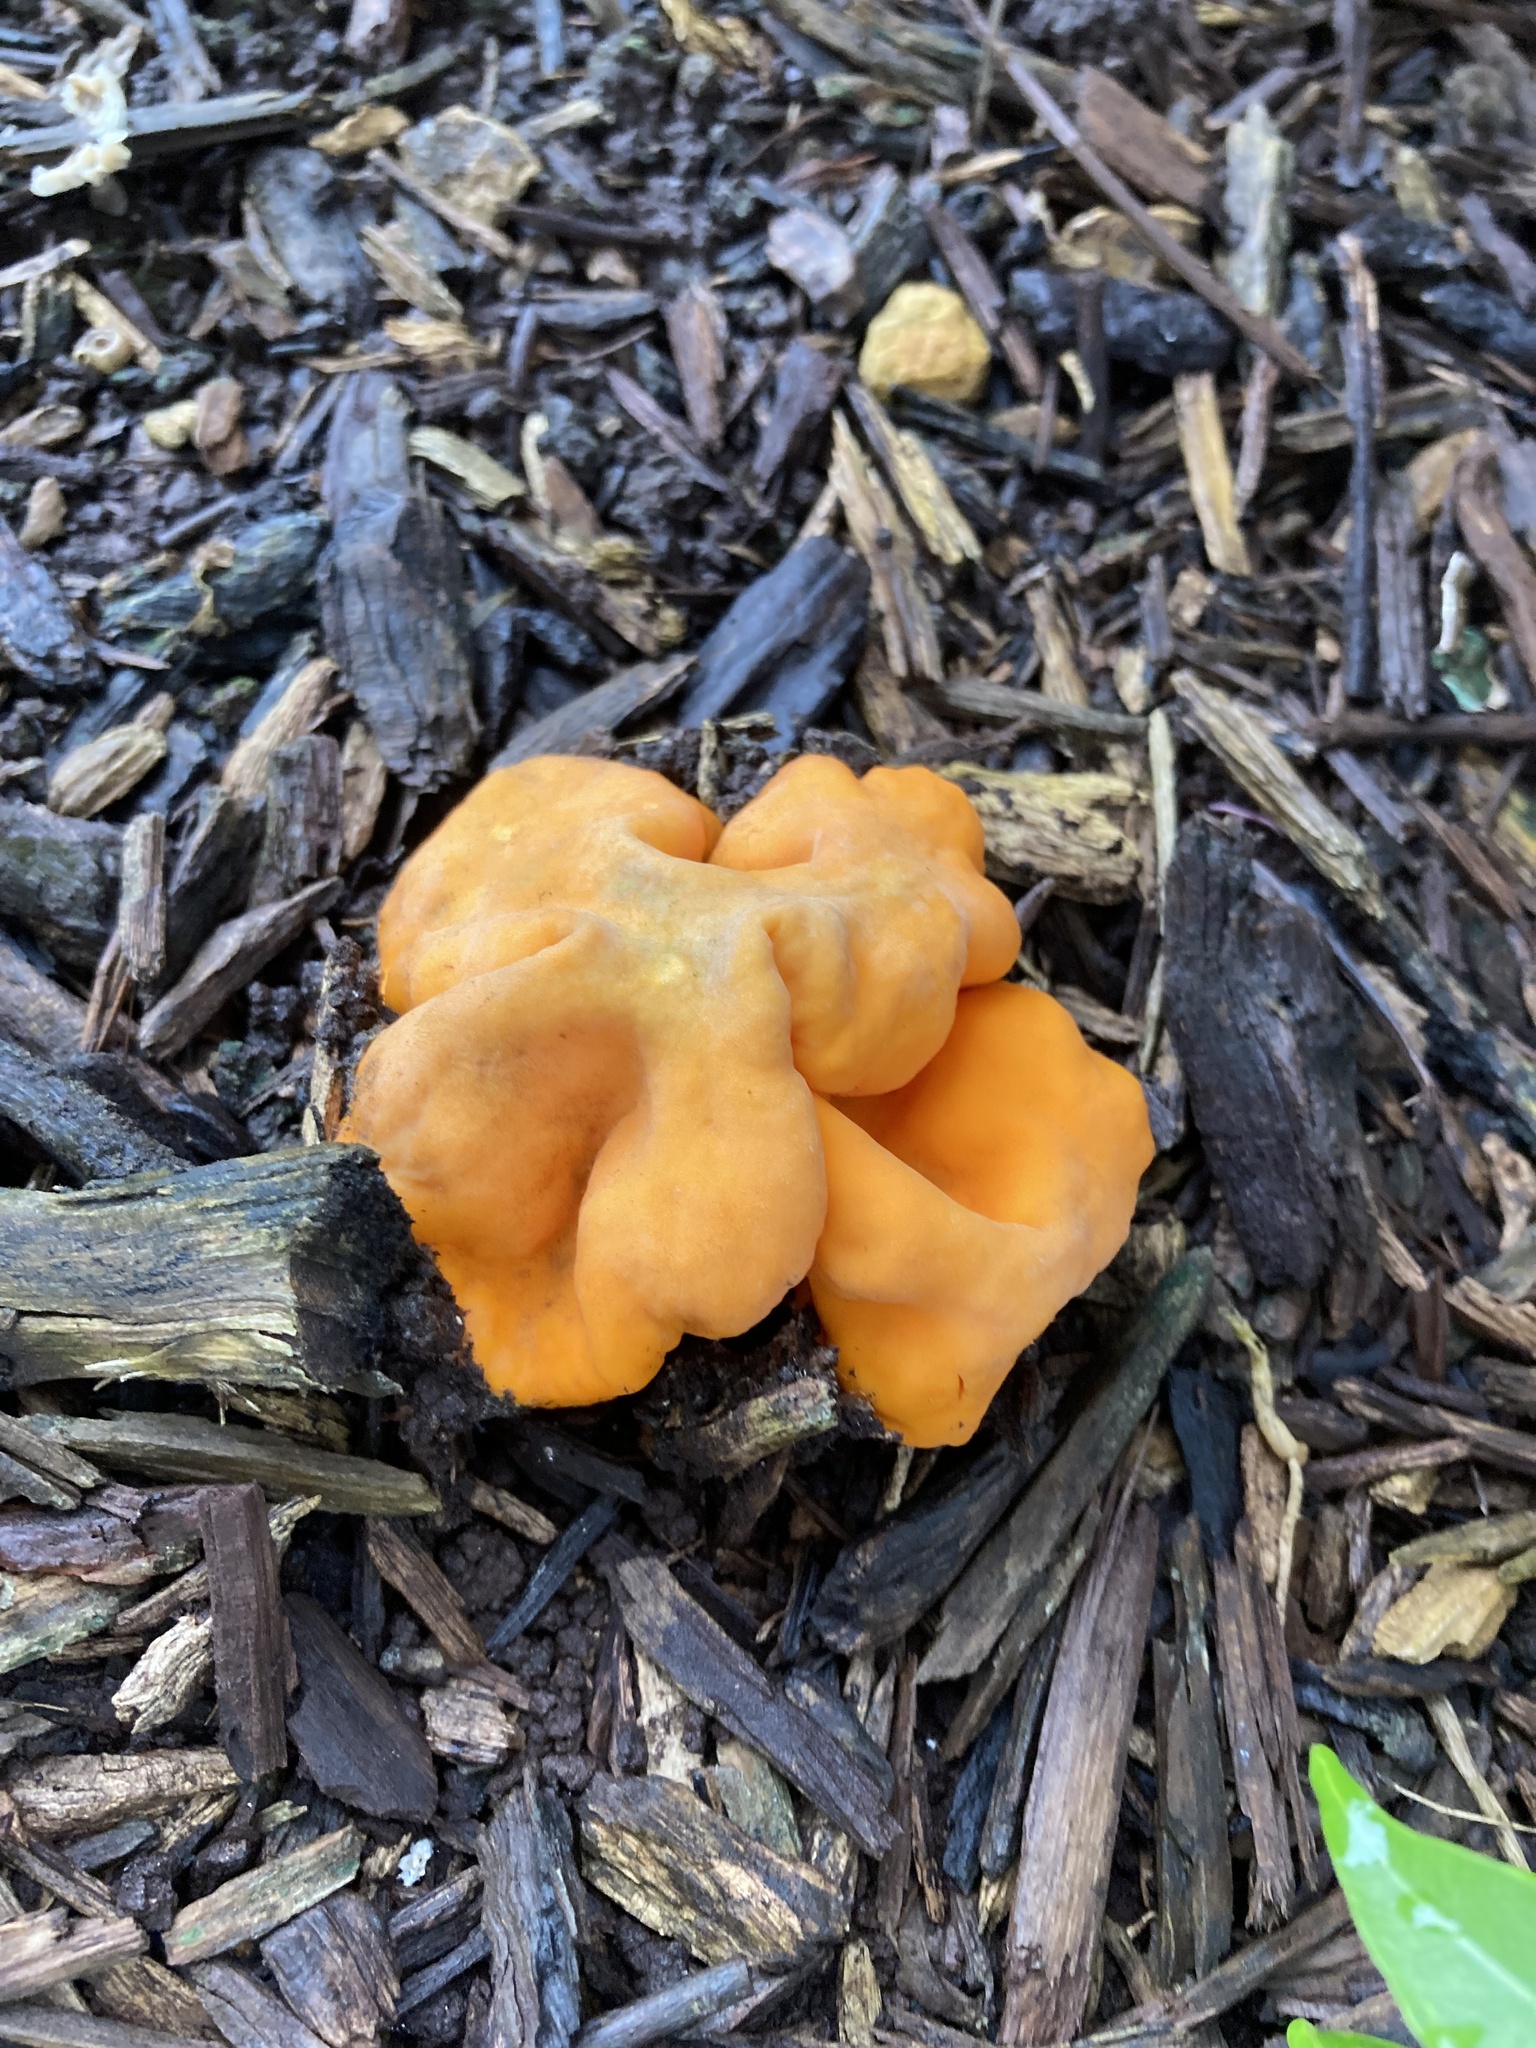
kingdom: Fungi
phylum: Ascomycota
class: Pezizomycetes
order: Pezizales
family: Glaziellaceae
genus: Glaziella
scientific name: Glaziella aurantiaca
